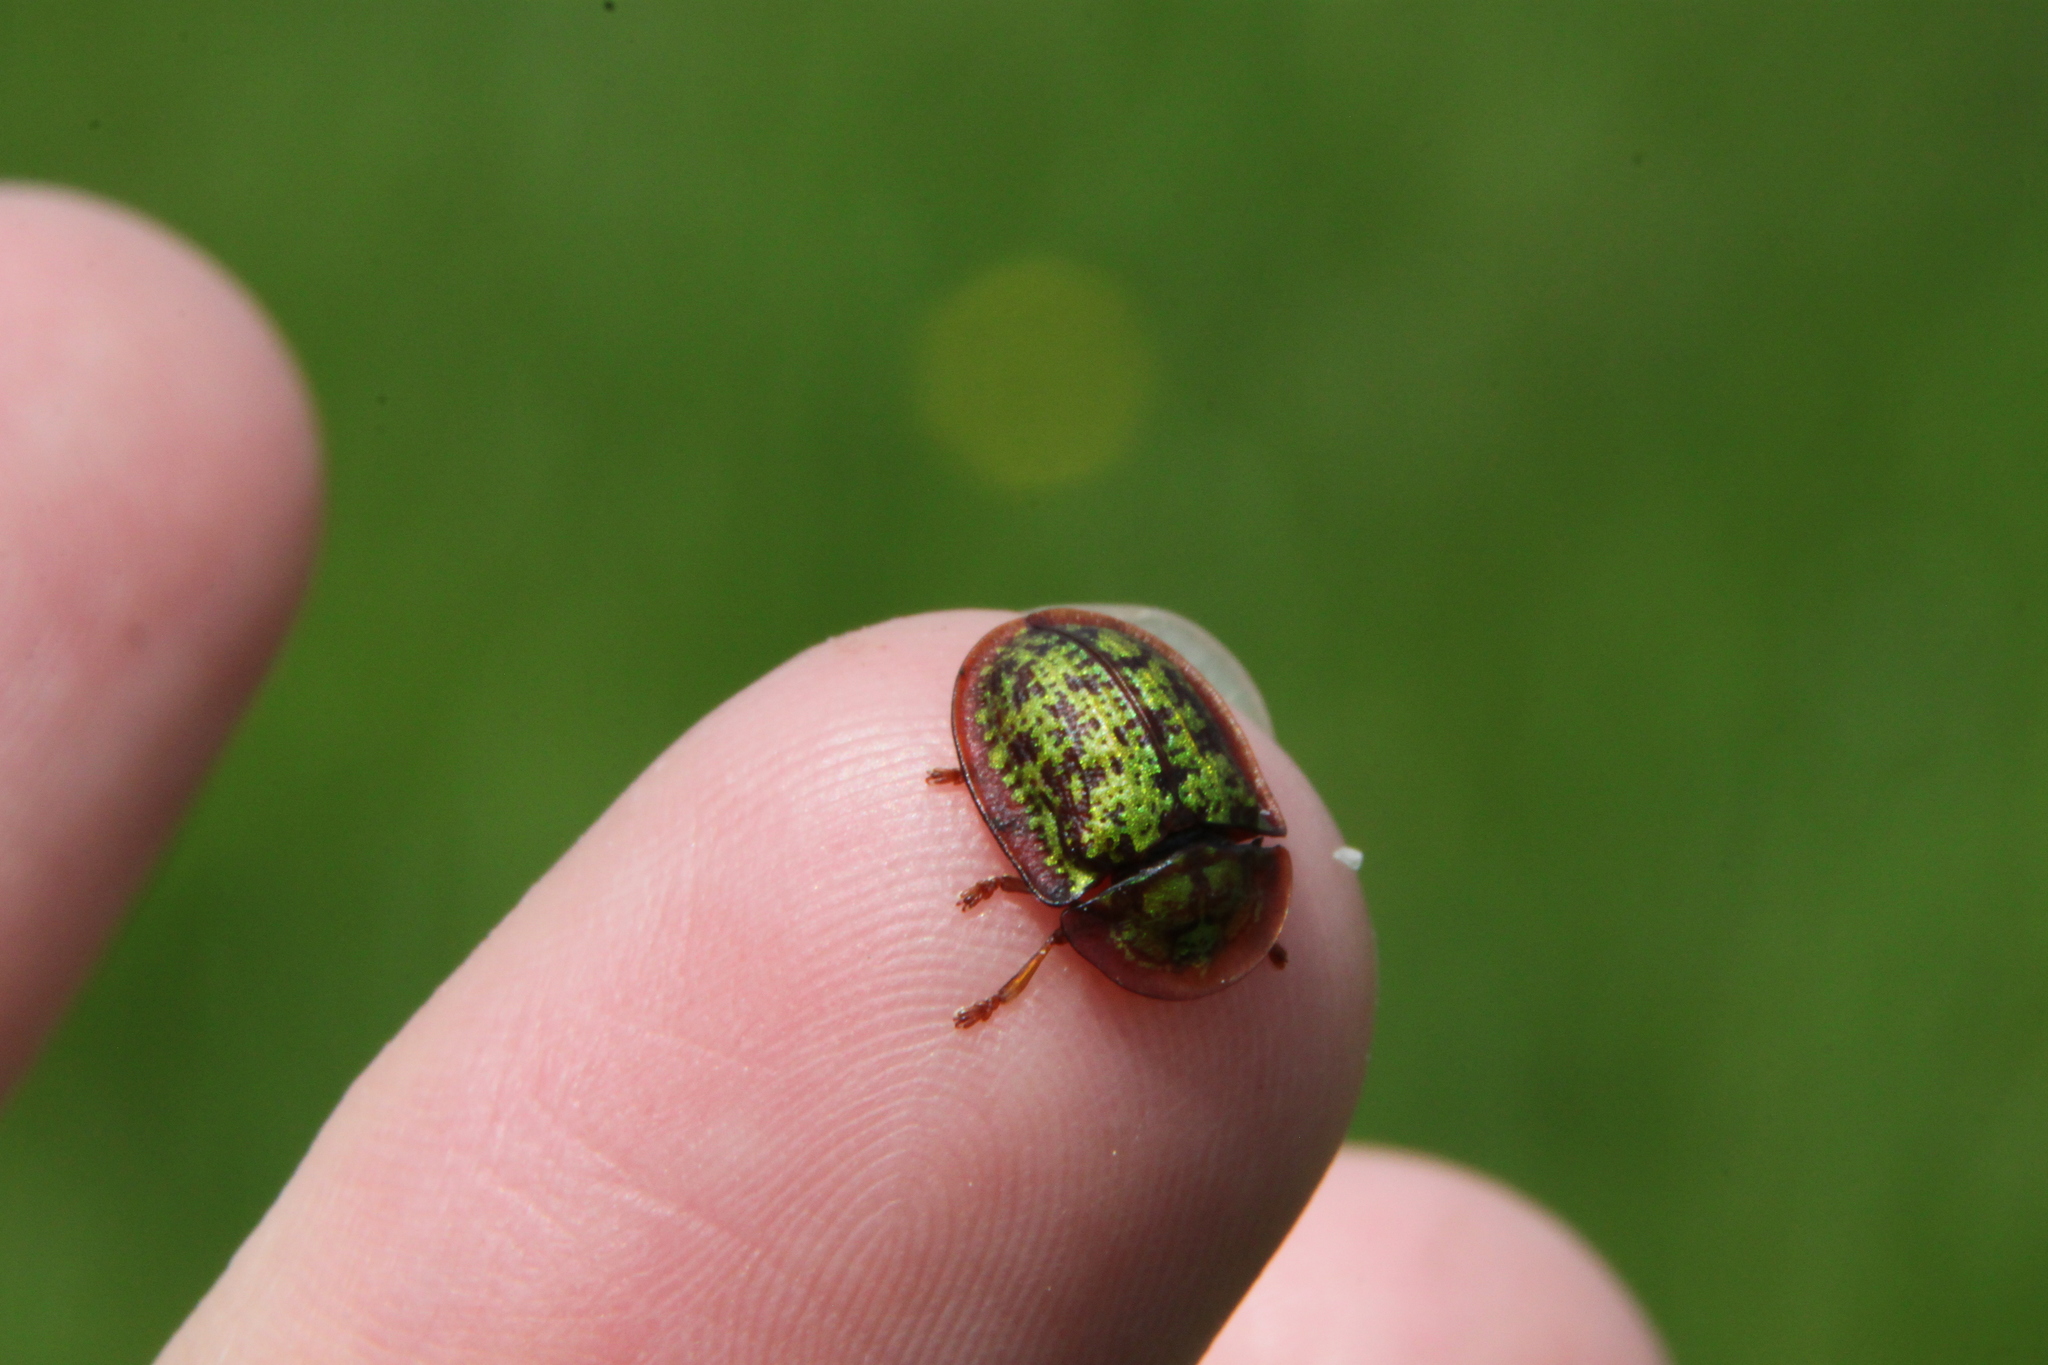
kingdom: Animalia
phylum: Arthropoda
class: Insecta
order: Coleoptera
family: Chrysomelidae
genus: Cassida
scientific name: Cassida canaliculata
